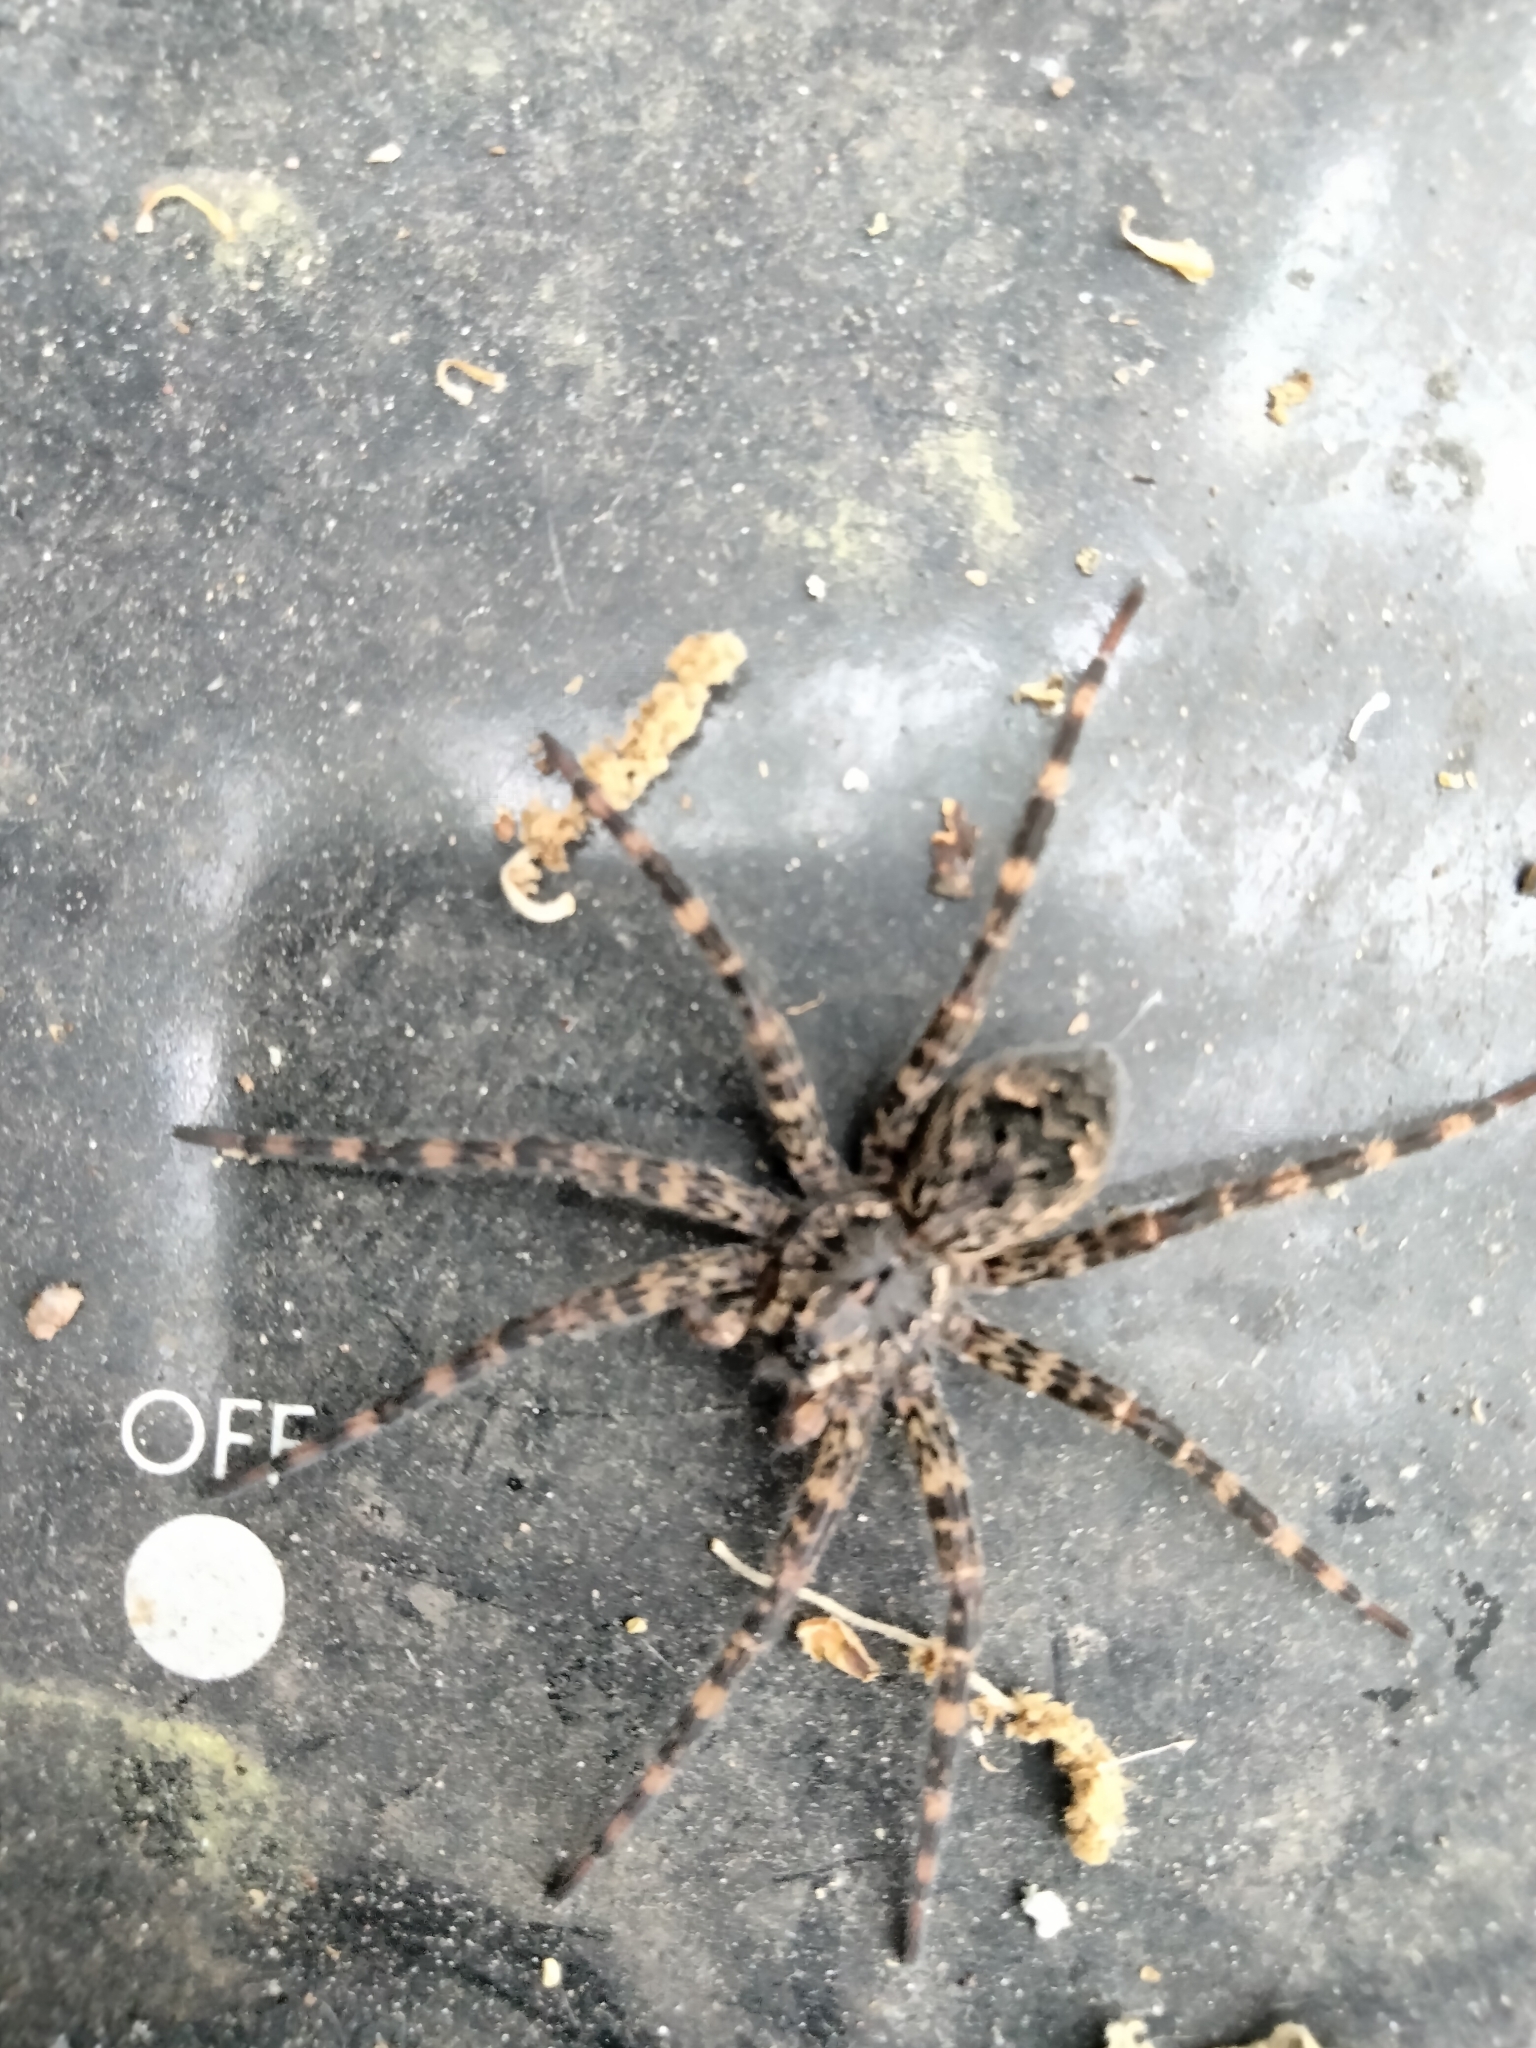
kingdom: Animalia
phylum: Arthropoda
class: Arachnida
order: Araneae
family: Pisauridae
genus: Dolomedes
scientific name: Dolomedes tenebrosus
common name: Dark fishing spider
